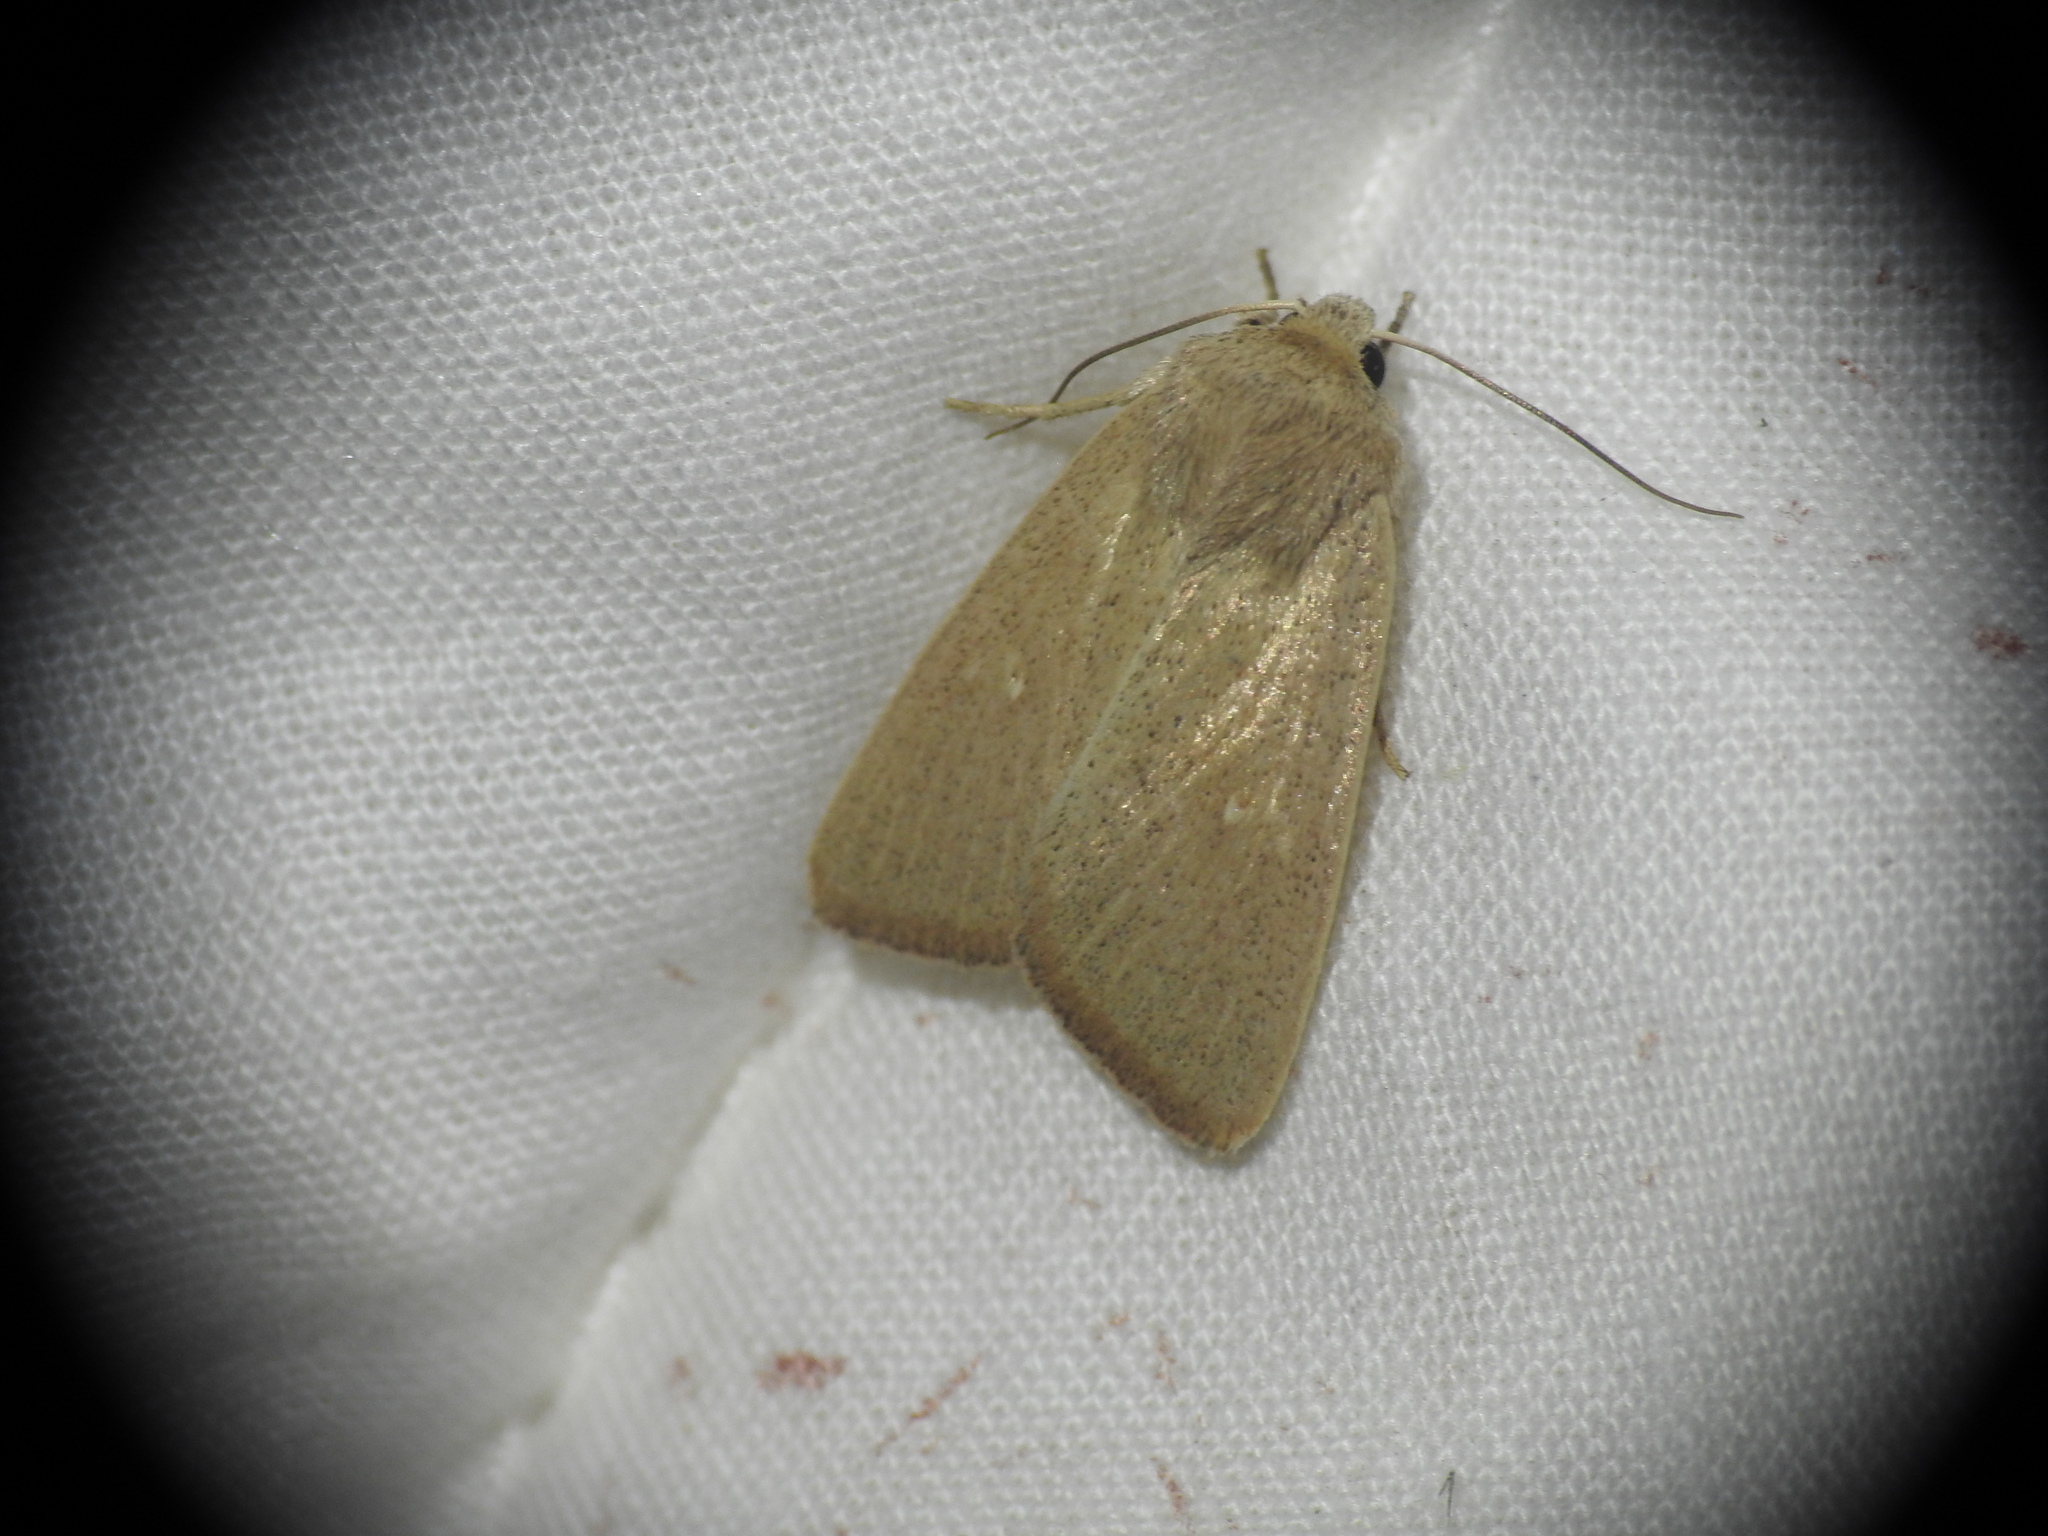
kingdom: Animalia
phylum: Arthropoda
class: Insecta
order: Lepidoptera
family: Noctuidae
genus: Mythimna
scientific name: Mythimna sicula
